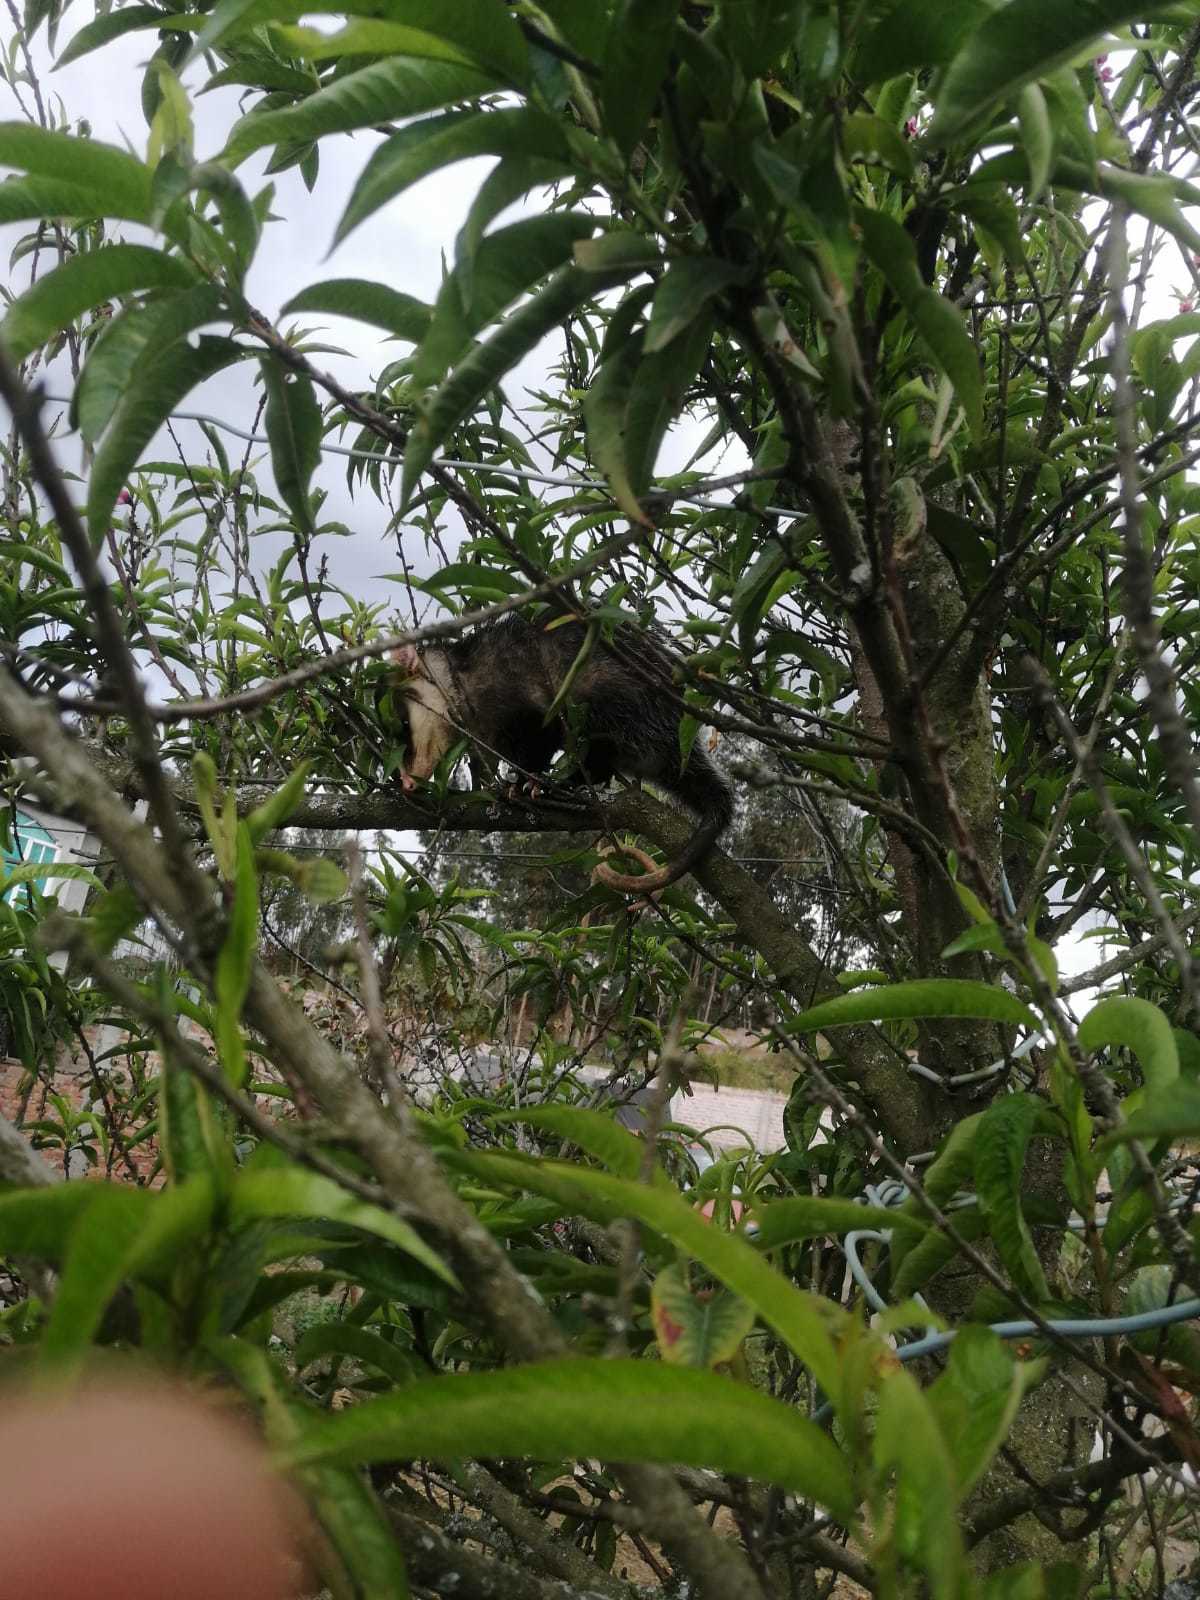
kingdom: Animalia
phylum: Chordata
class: Mammalia
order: Didelphimorphia
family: Didelphidae
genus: Didelphis
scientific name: Didelphis pernigra
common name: Andean white-eared opossum
